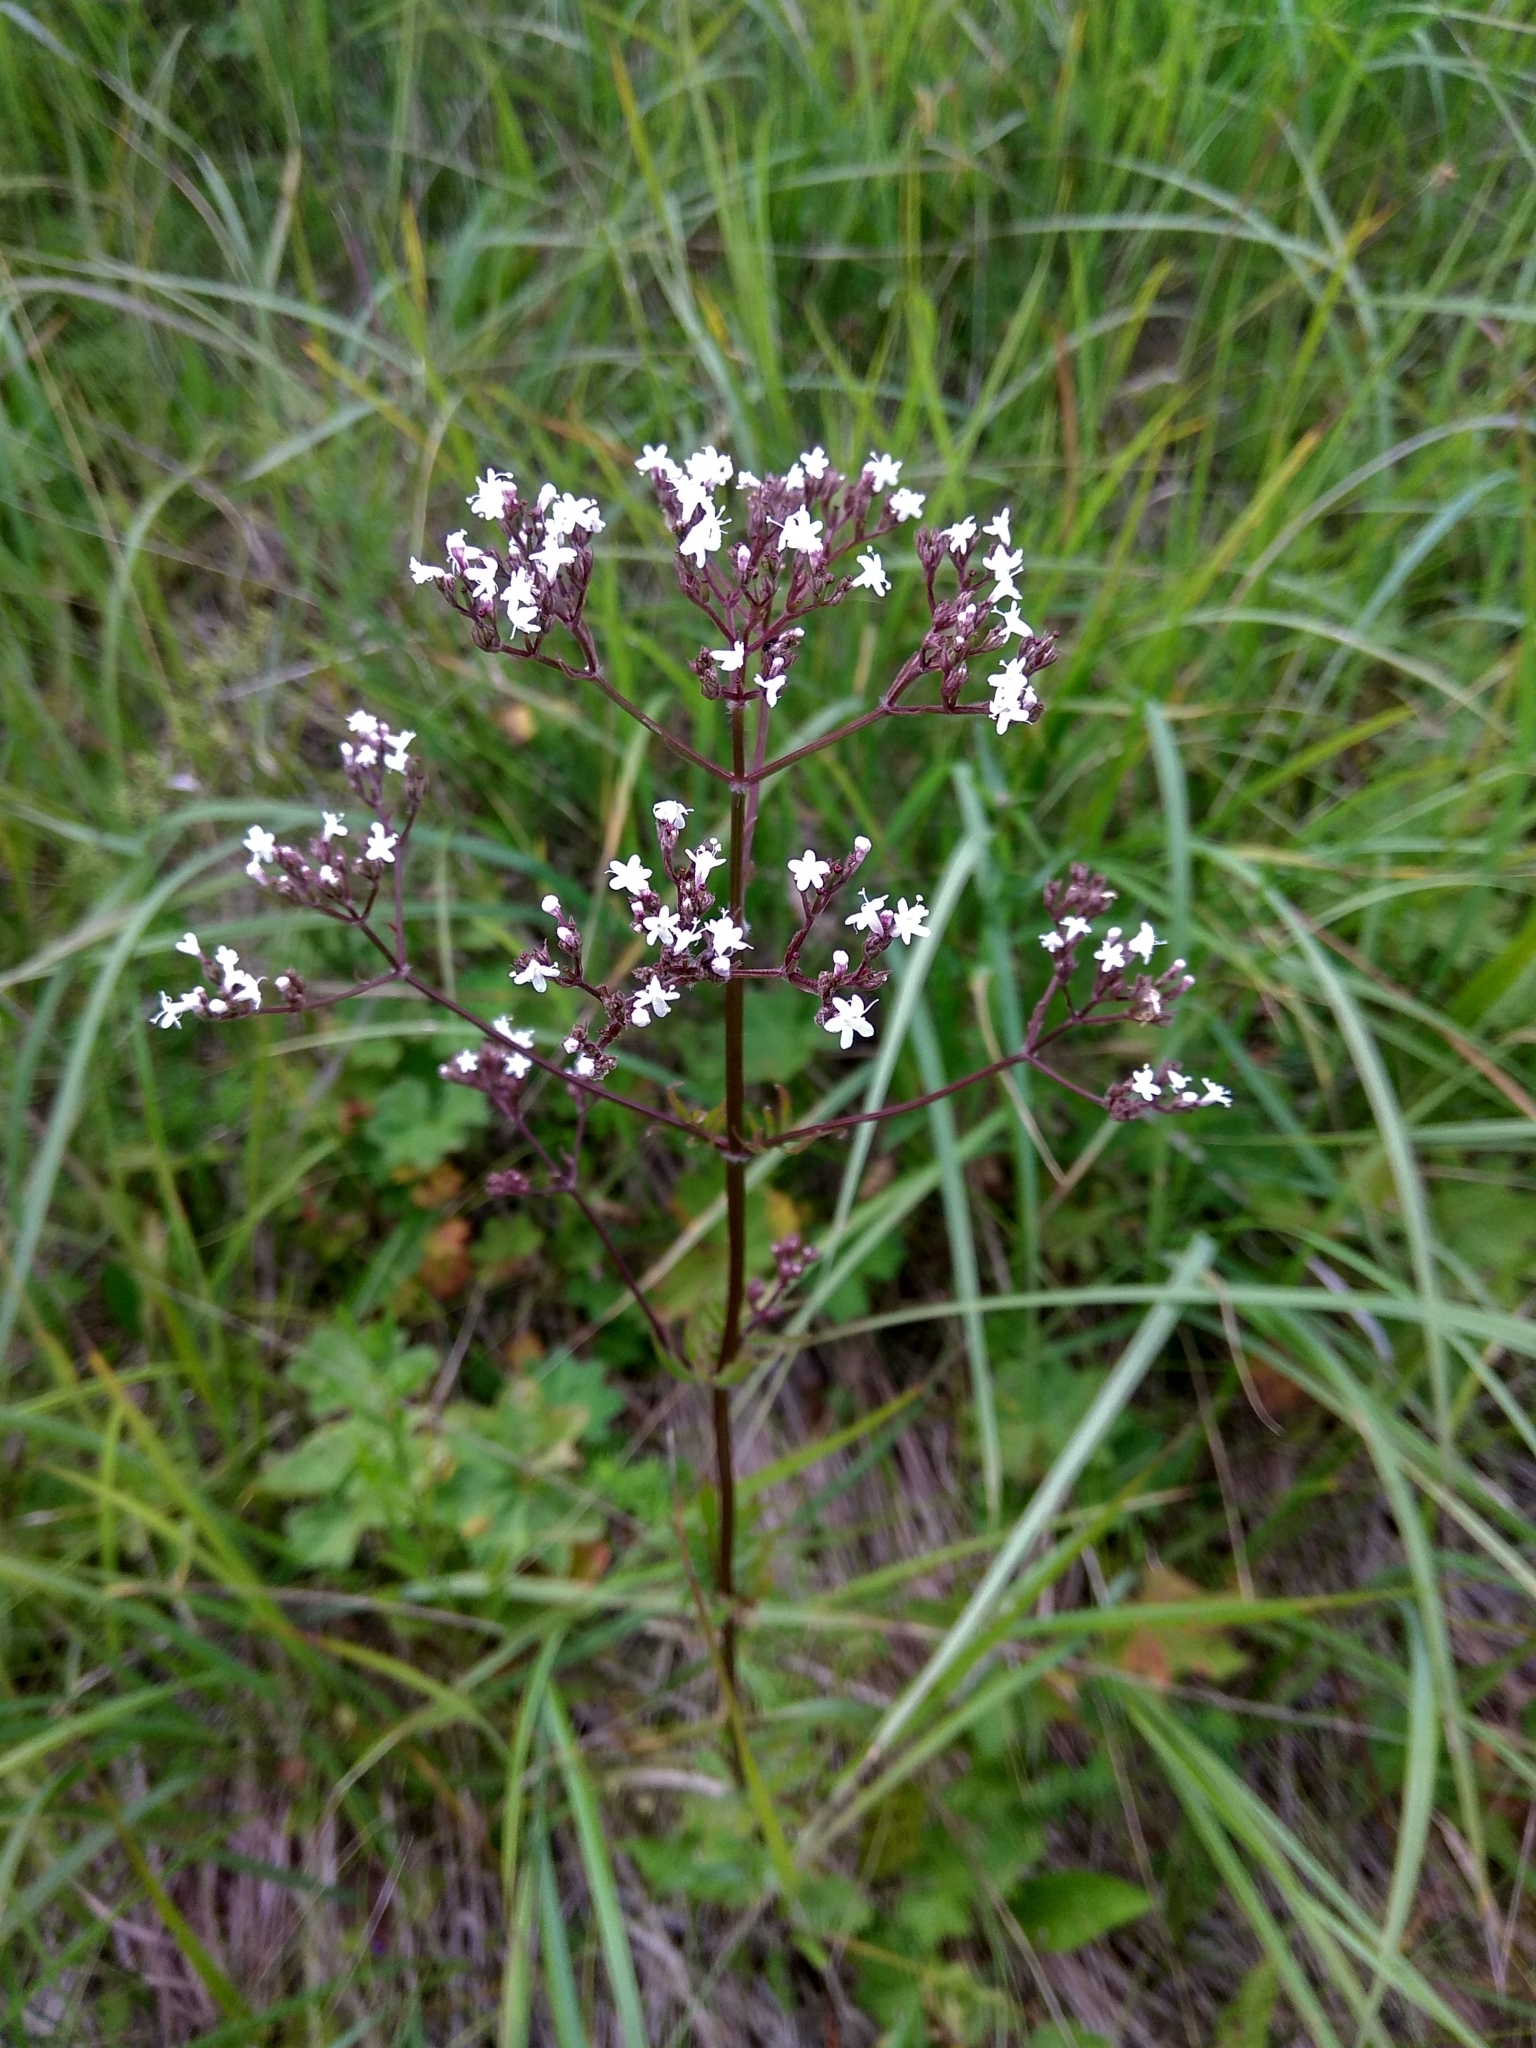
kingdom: Plantae
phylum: Tracheophyta
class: Magnoliopsida
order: Dipsacales
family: Caprifoliaceae
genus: Valeriana
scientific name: Valeriana officinalis
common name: Common valerian
